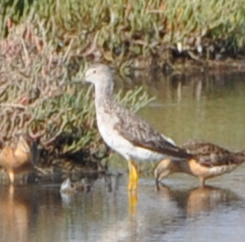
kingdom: Animalia
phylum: Chordata
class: Aves
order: Charadriiformes
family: Scolopacidae
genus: Tringa
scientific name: Tringa melanoleuca
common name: Greater yellowlegs
